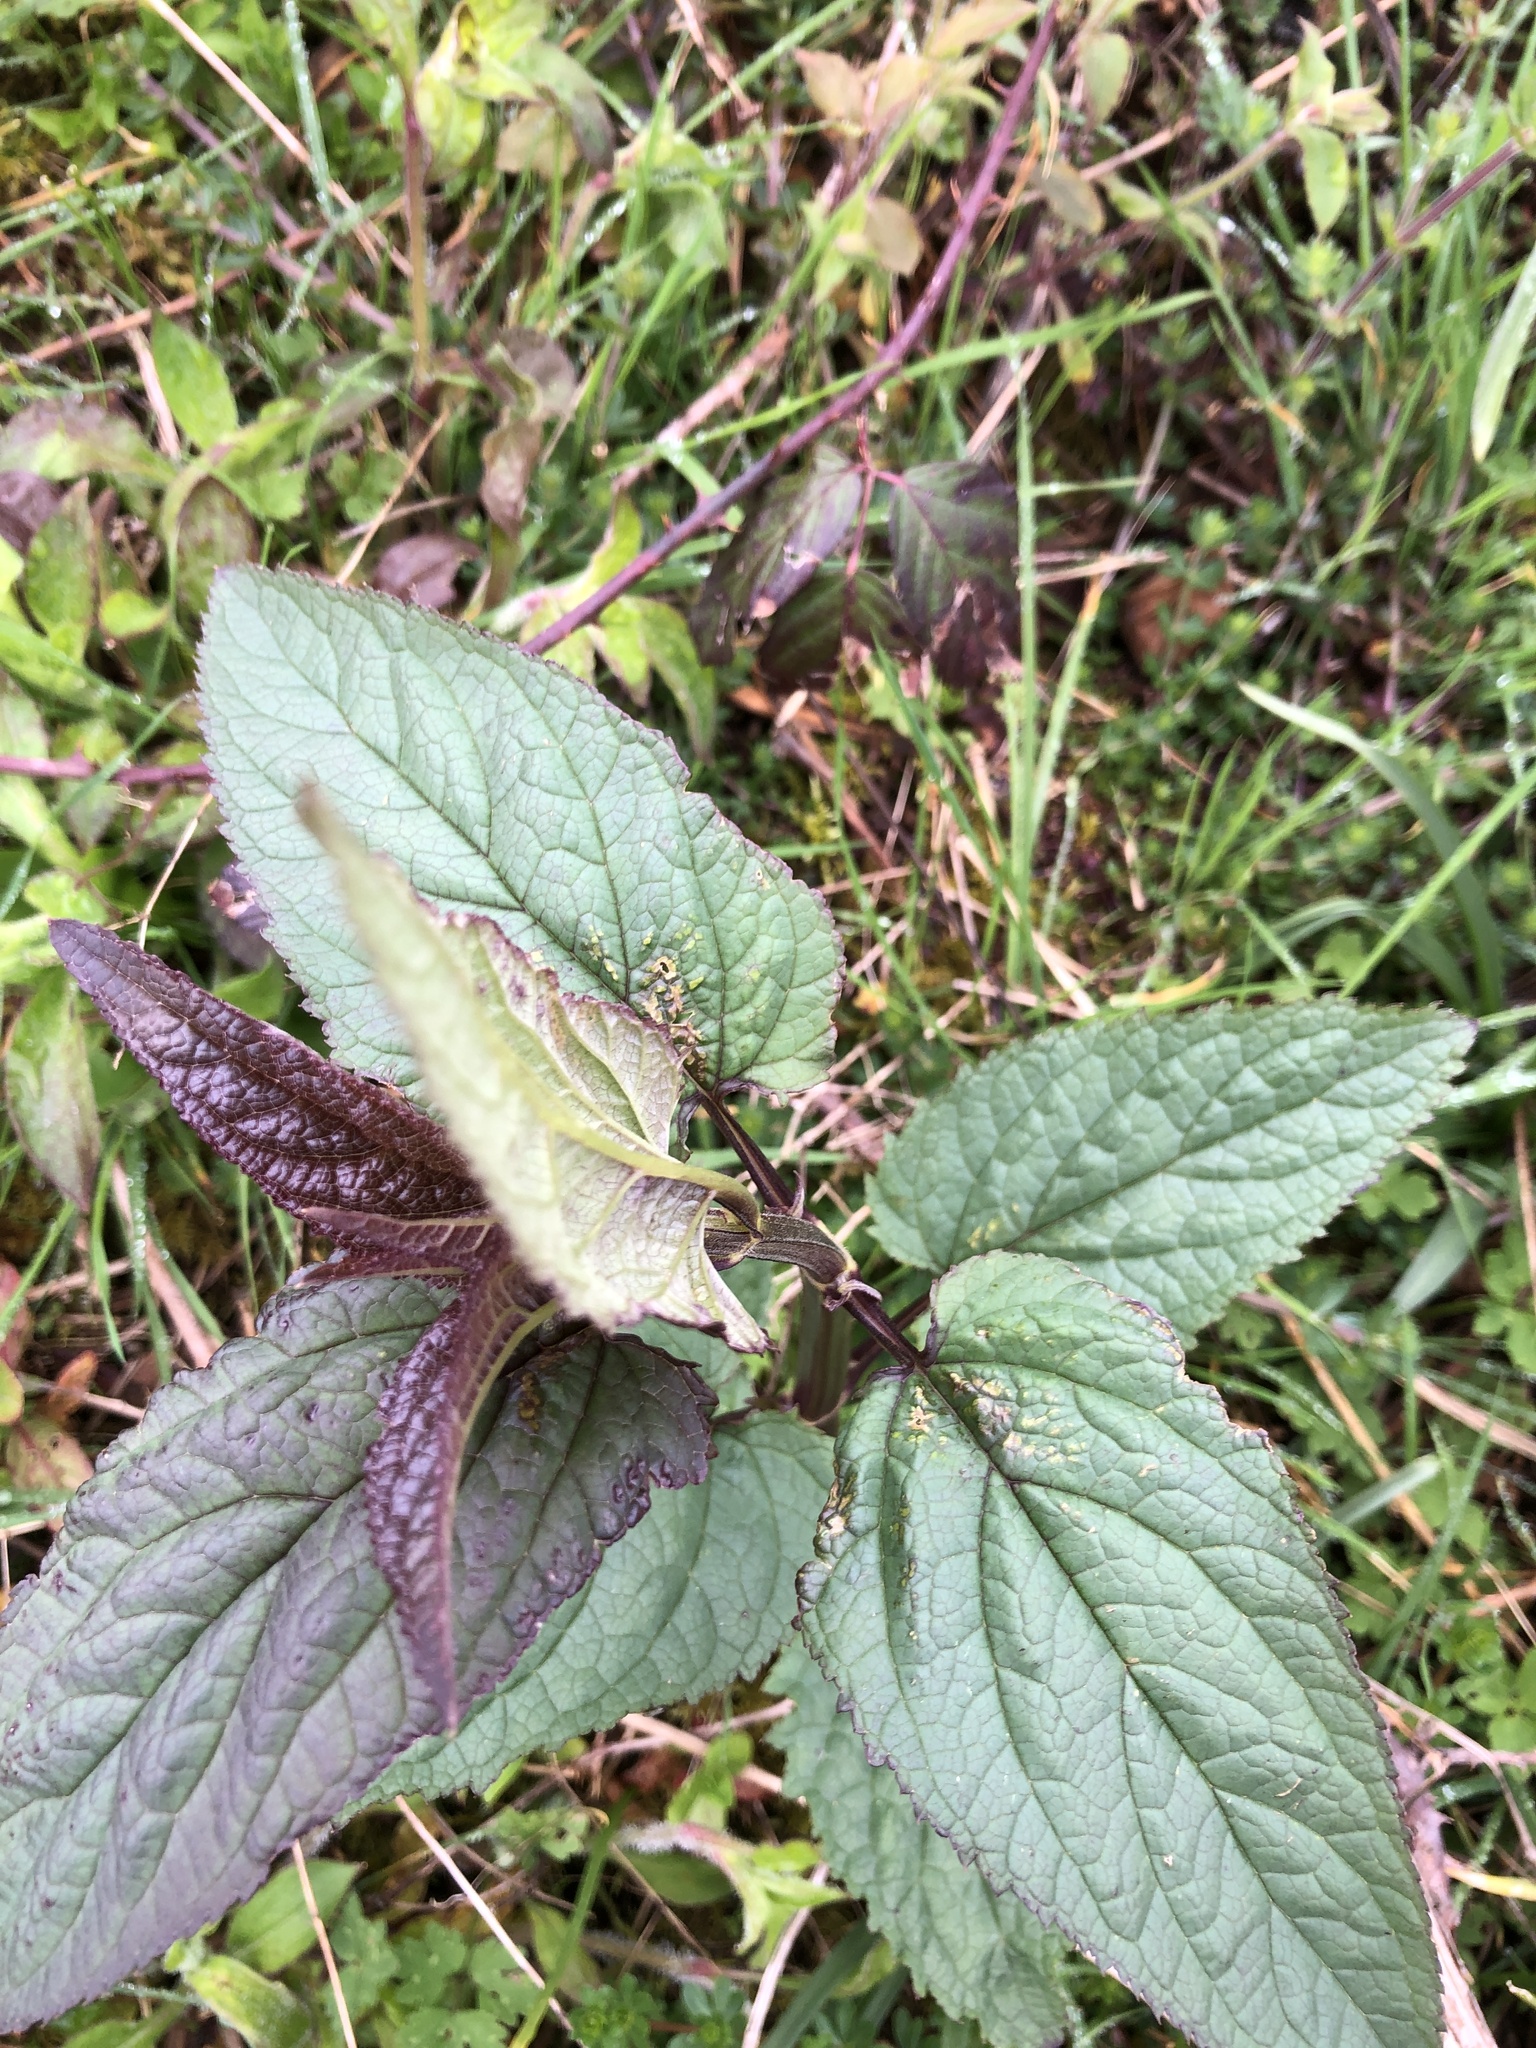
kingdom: Plantae
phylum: Tracheophyta
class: Magnoliopsida
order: Lamiales
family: Scrophulariaceae
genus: Scrophularia
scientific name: Scrophularia nodosa
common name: Common figwort
